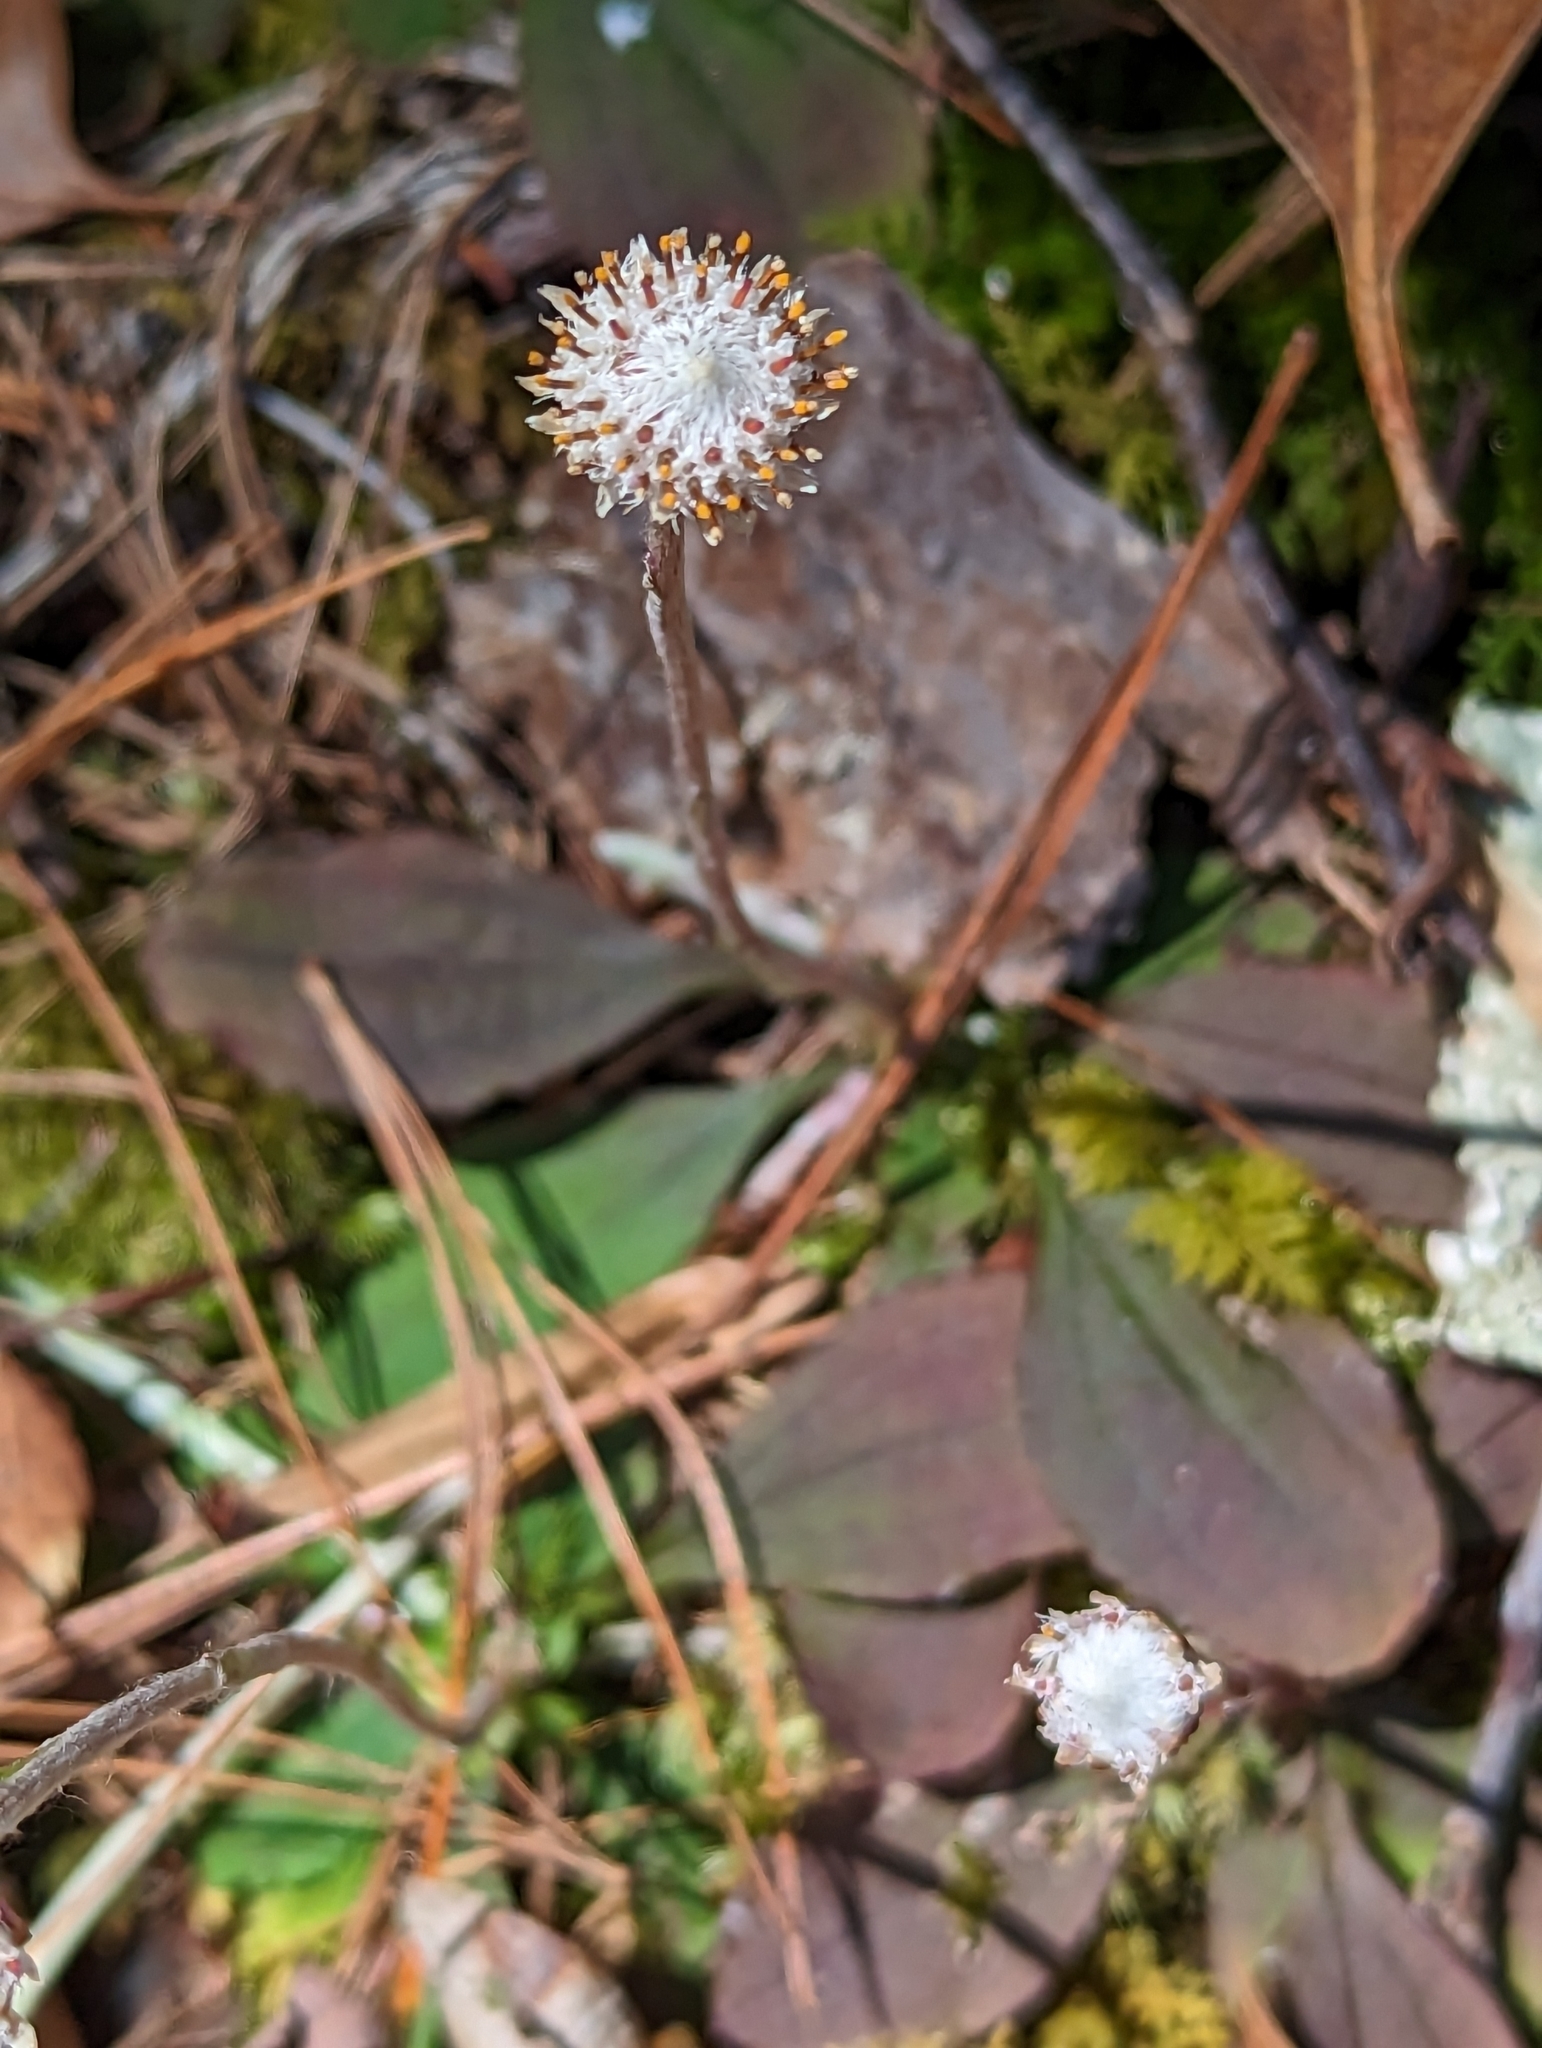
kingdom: Plantae
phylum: Tracheophyta
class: Magnoliopsida
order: Asterales
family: Asteraceae
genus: Antennaria
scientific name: Antennaria solitaria
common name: Single-head pussytoes
